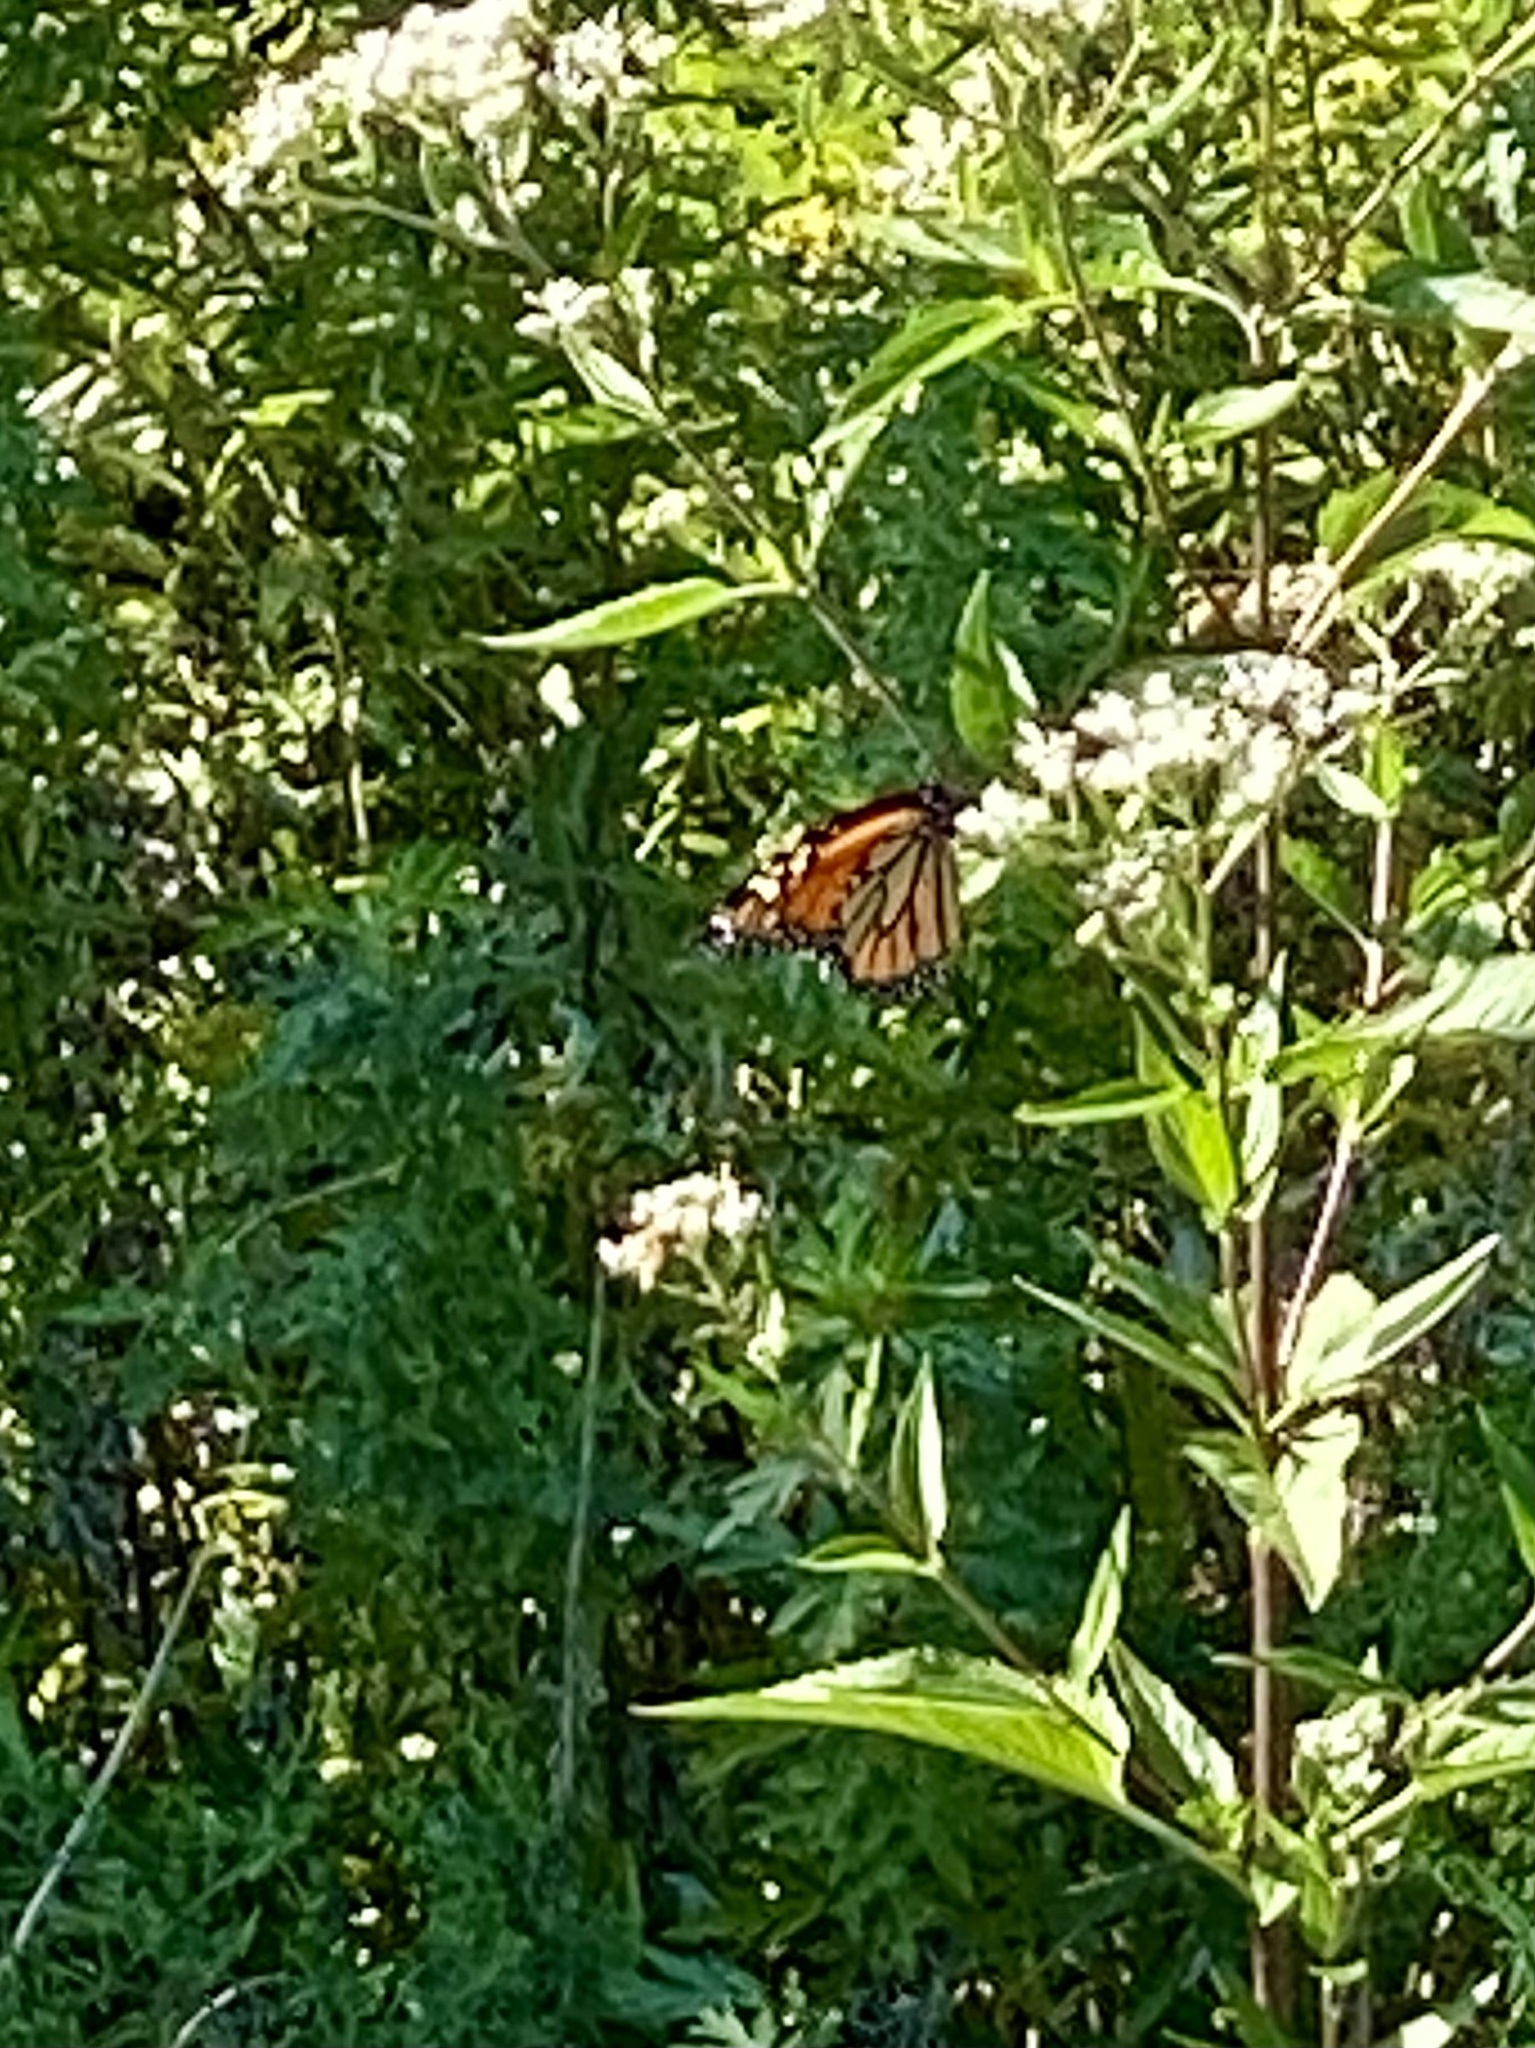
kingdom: Animalia
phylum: Arthropoda
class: Insecta
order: Lepidoptera
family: Nymphalidae
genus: Danaus
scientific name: Danaus plexippus
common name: Monarch
